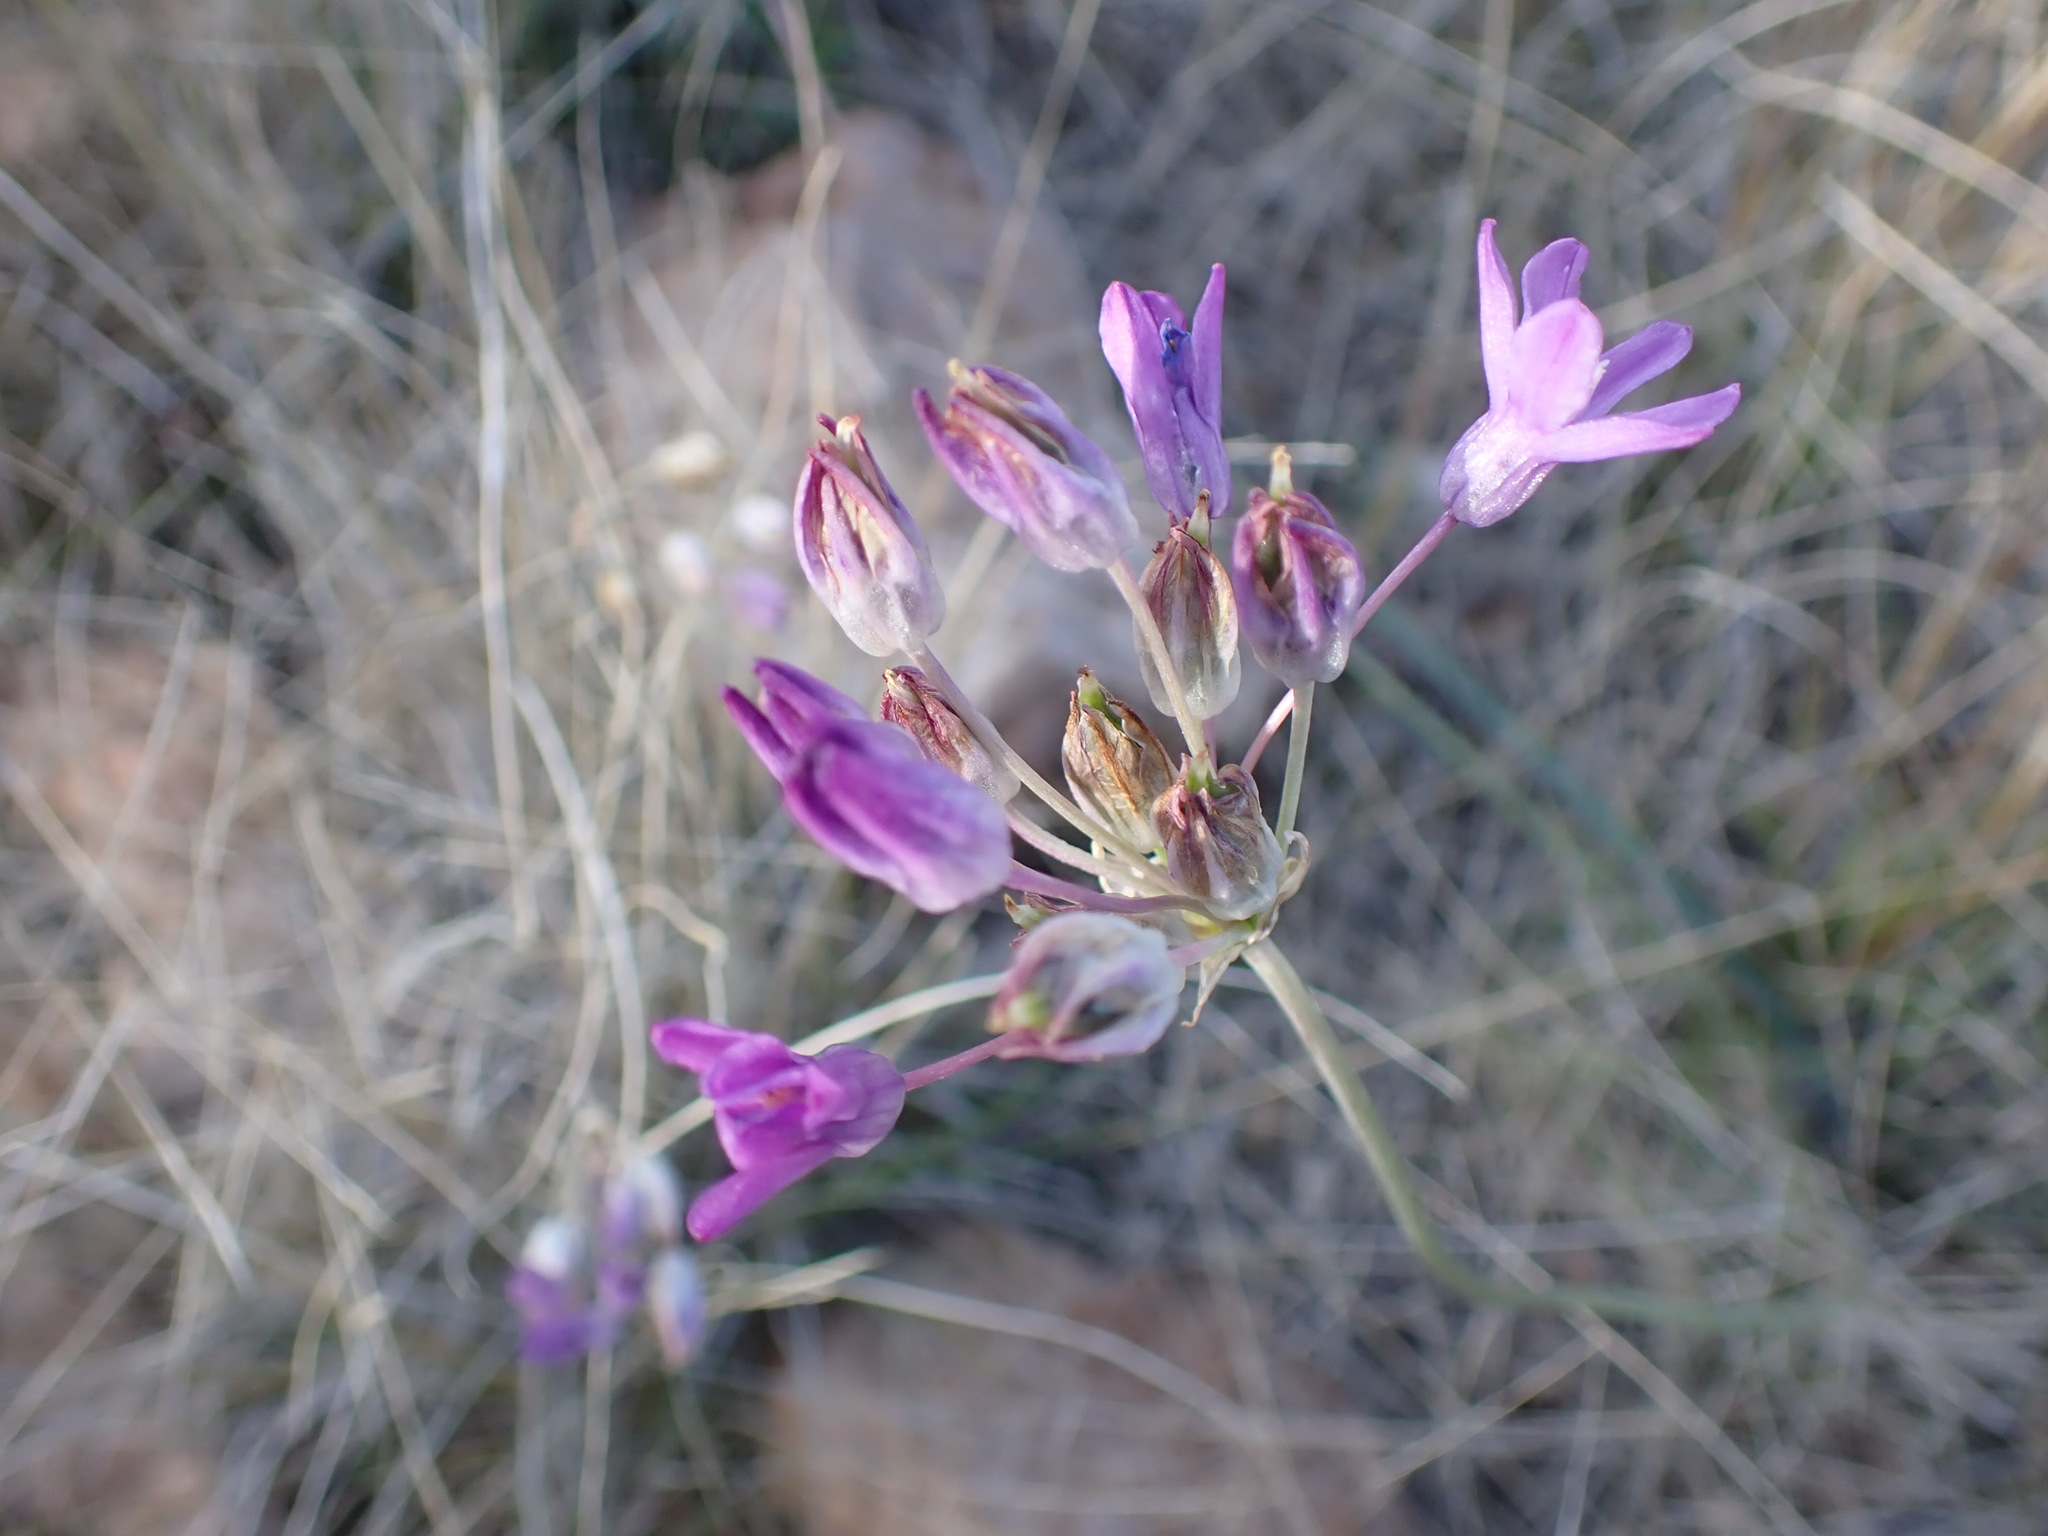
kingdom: Plantae
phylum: Tracheophyta
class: Liliopsida
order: Asparagales
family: Asparagaceae
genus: Dipterostemon
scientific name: Dipterostemon capitatus
